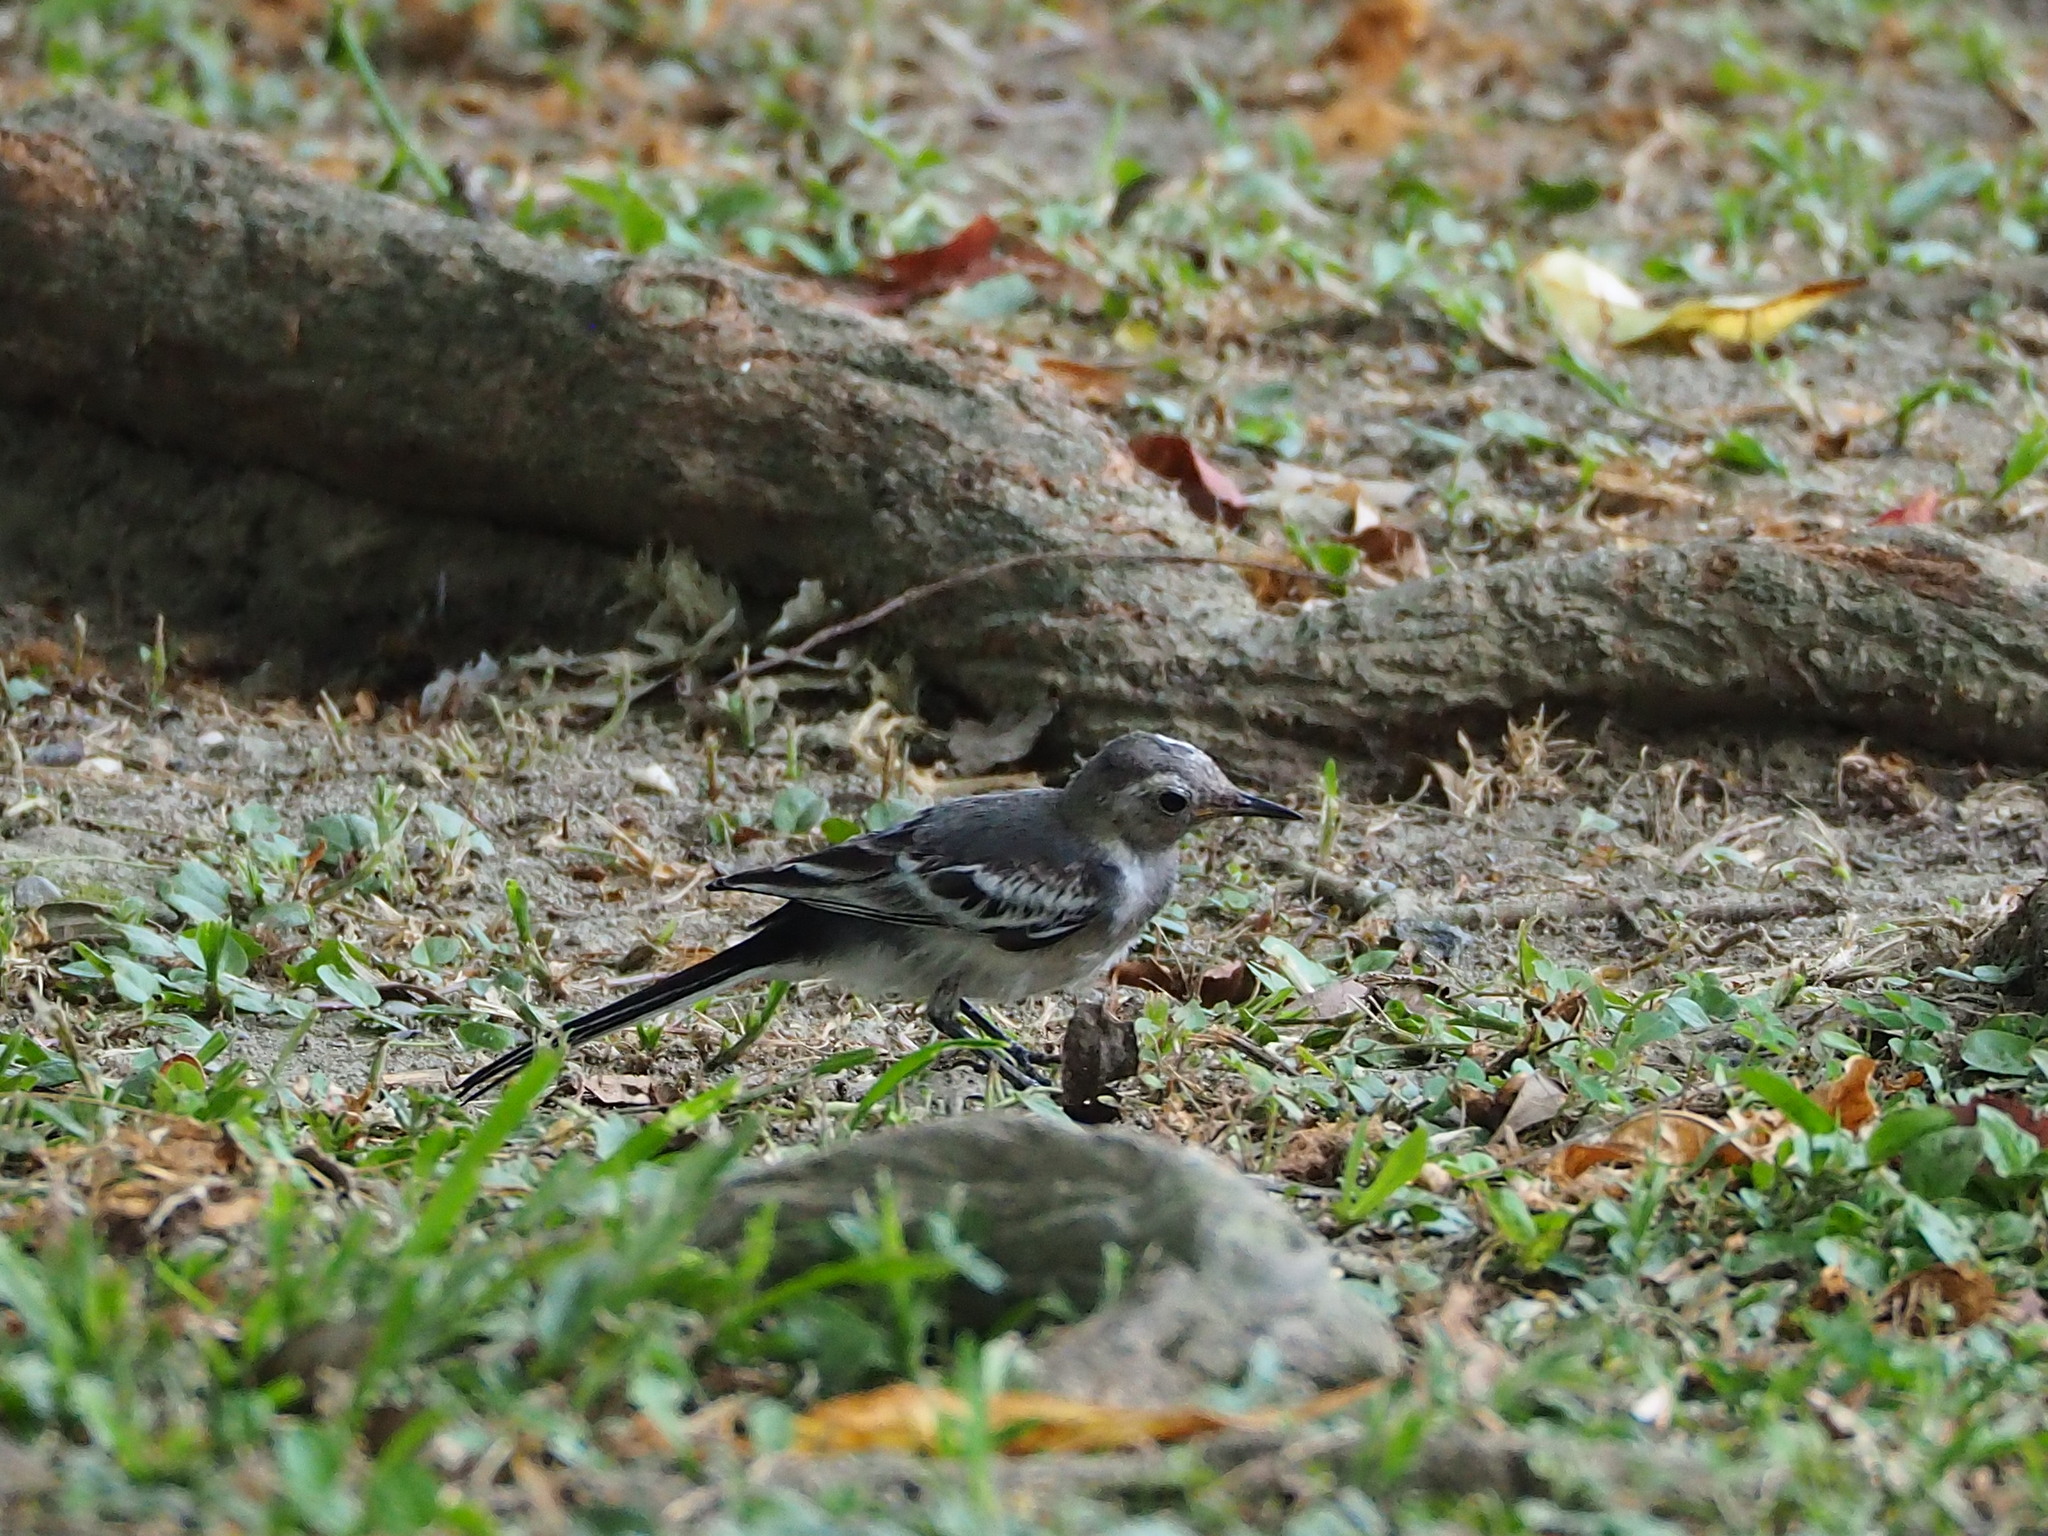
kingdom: Animalia
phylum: Chordata
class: Aves
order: Passeriformes
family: Motacillidae
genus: Motacilla
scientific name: Motacilla alba
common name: White wagtail
